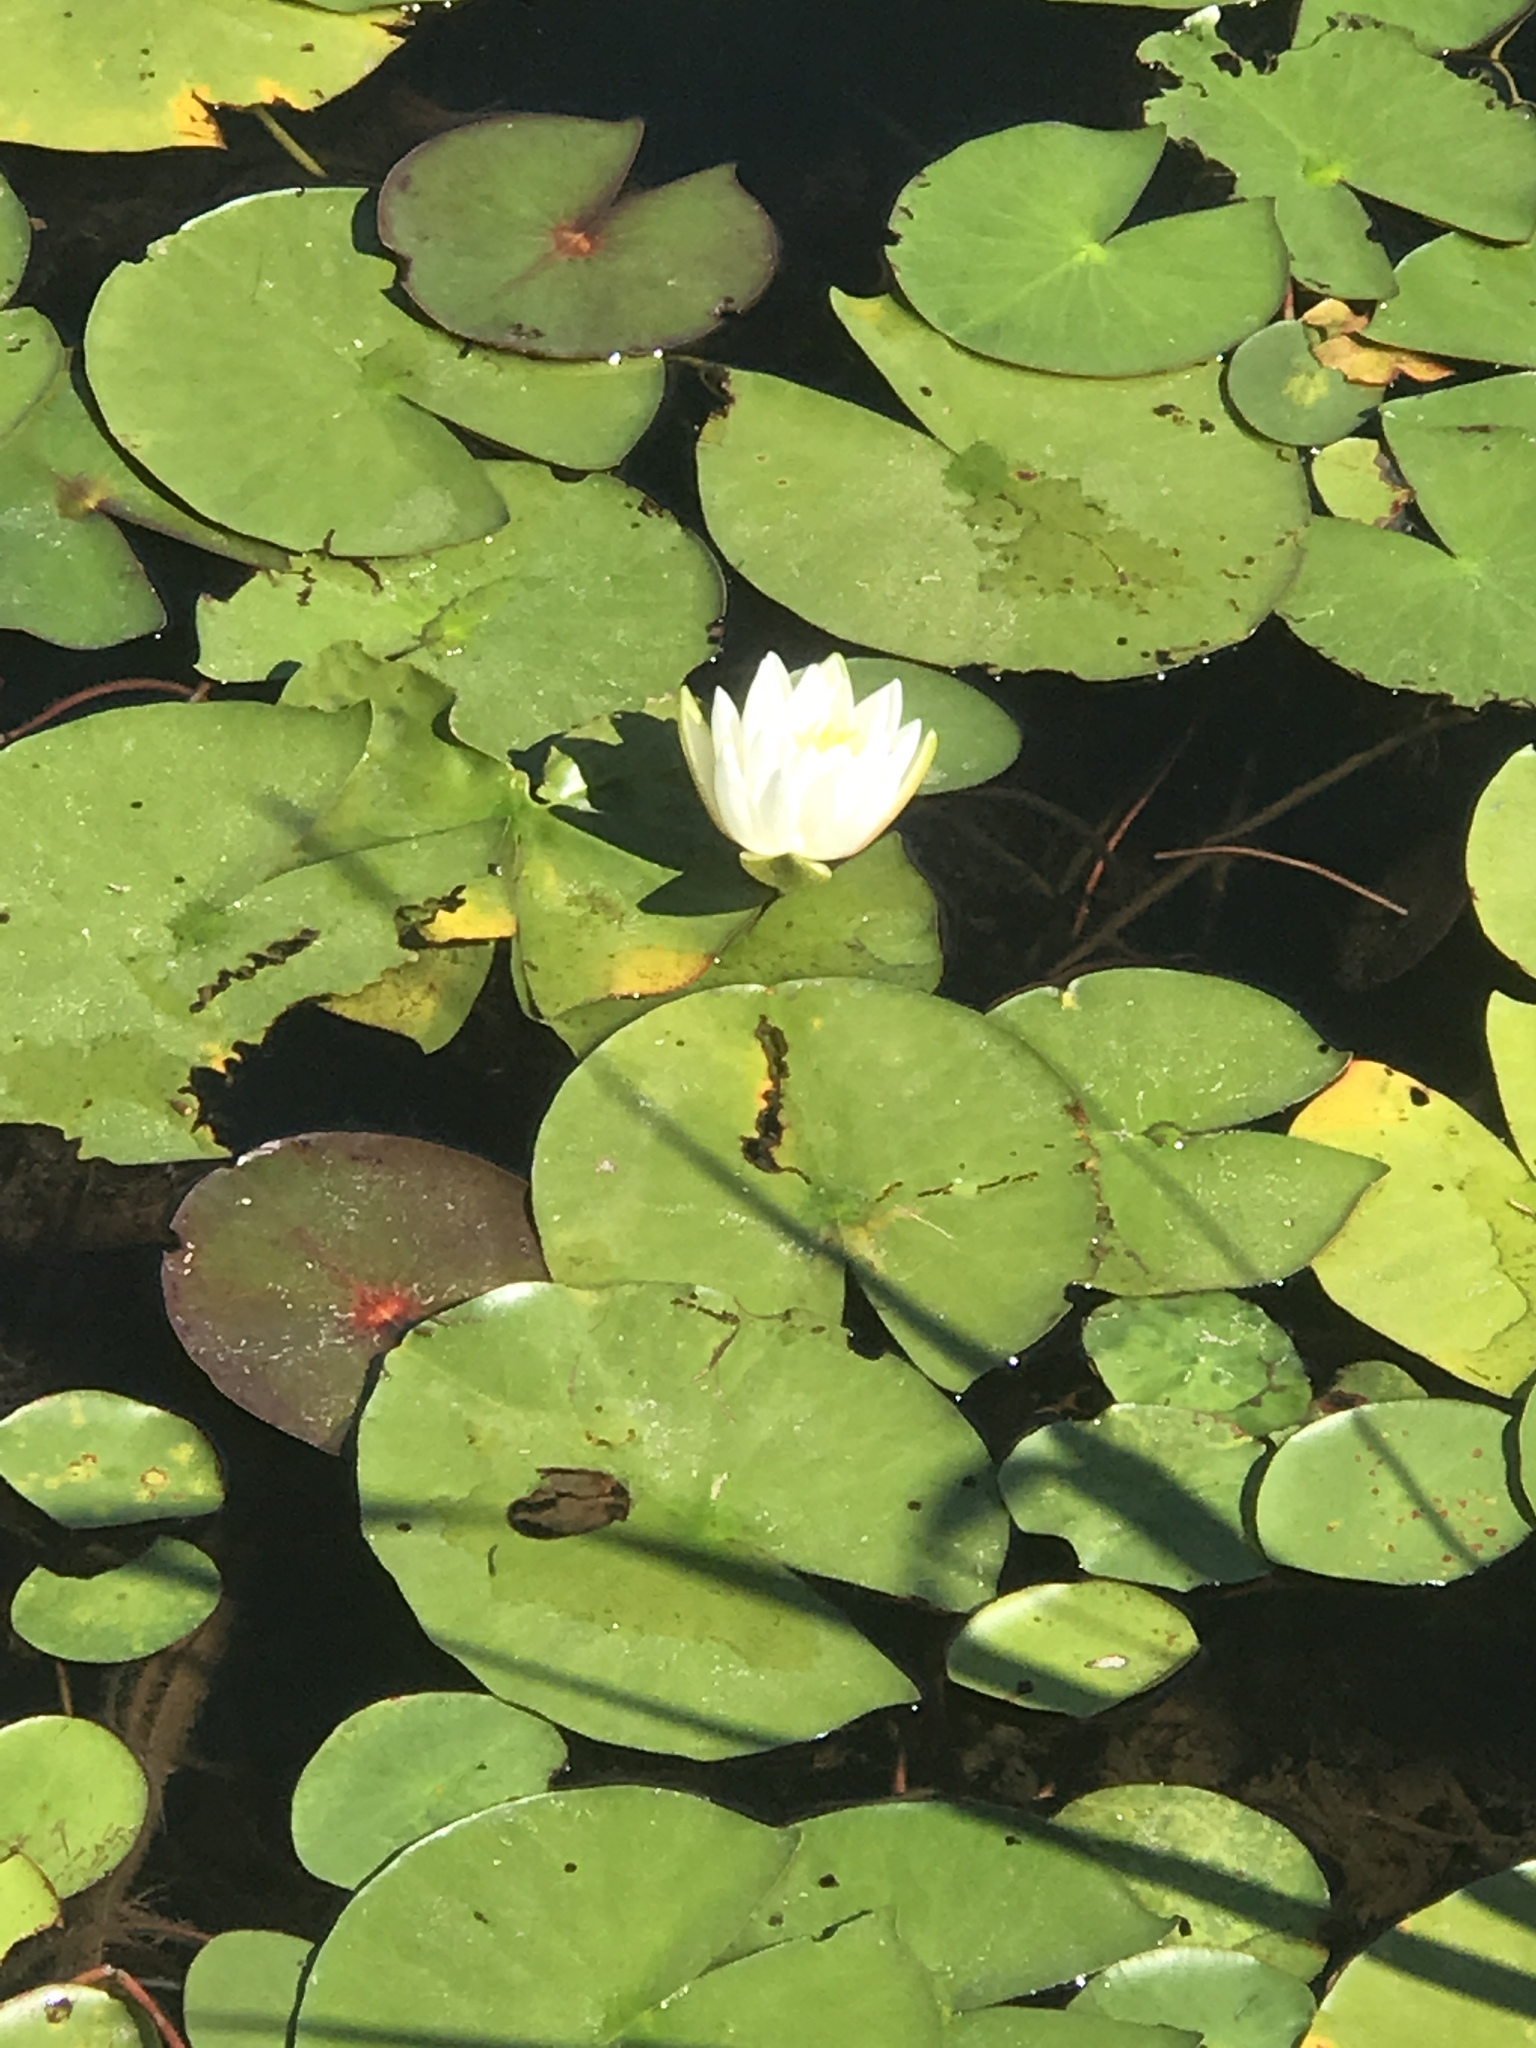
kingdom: Plantae
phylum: Tracheophyta
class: Magnoliopsida
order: Nymphaeales
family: Nymphaeaceae
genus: Nymphaea
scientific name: Nymphaea odorata
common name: Fragrant water-lily
